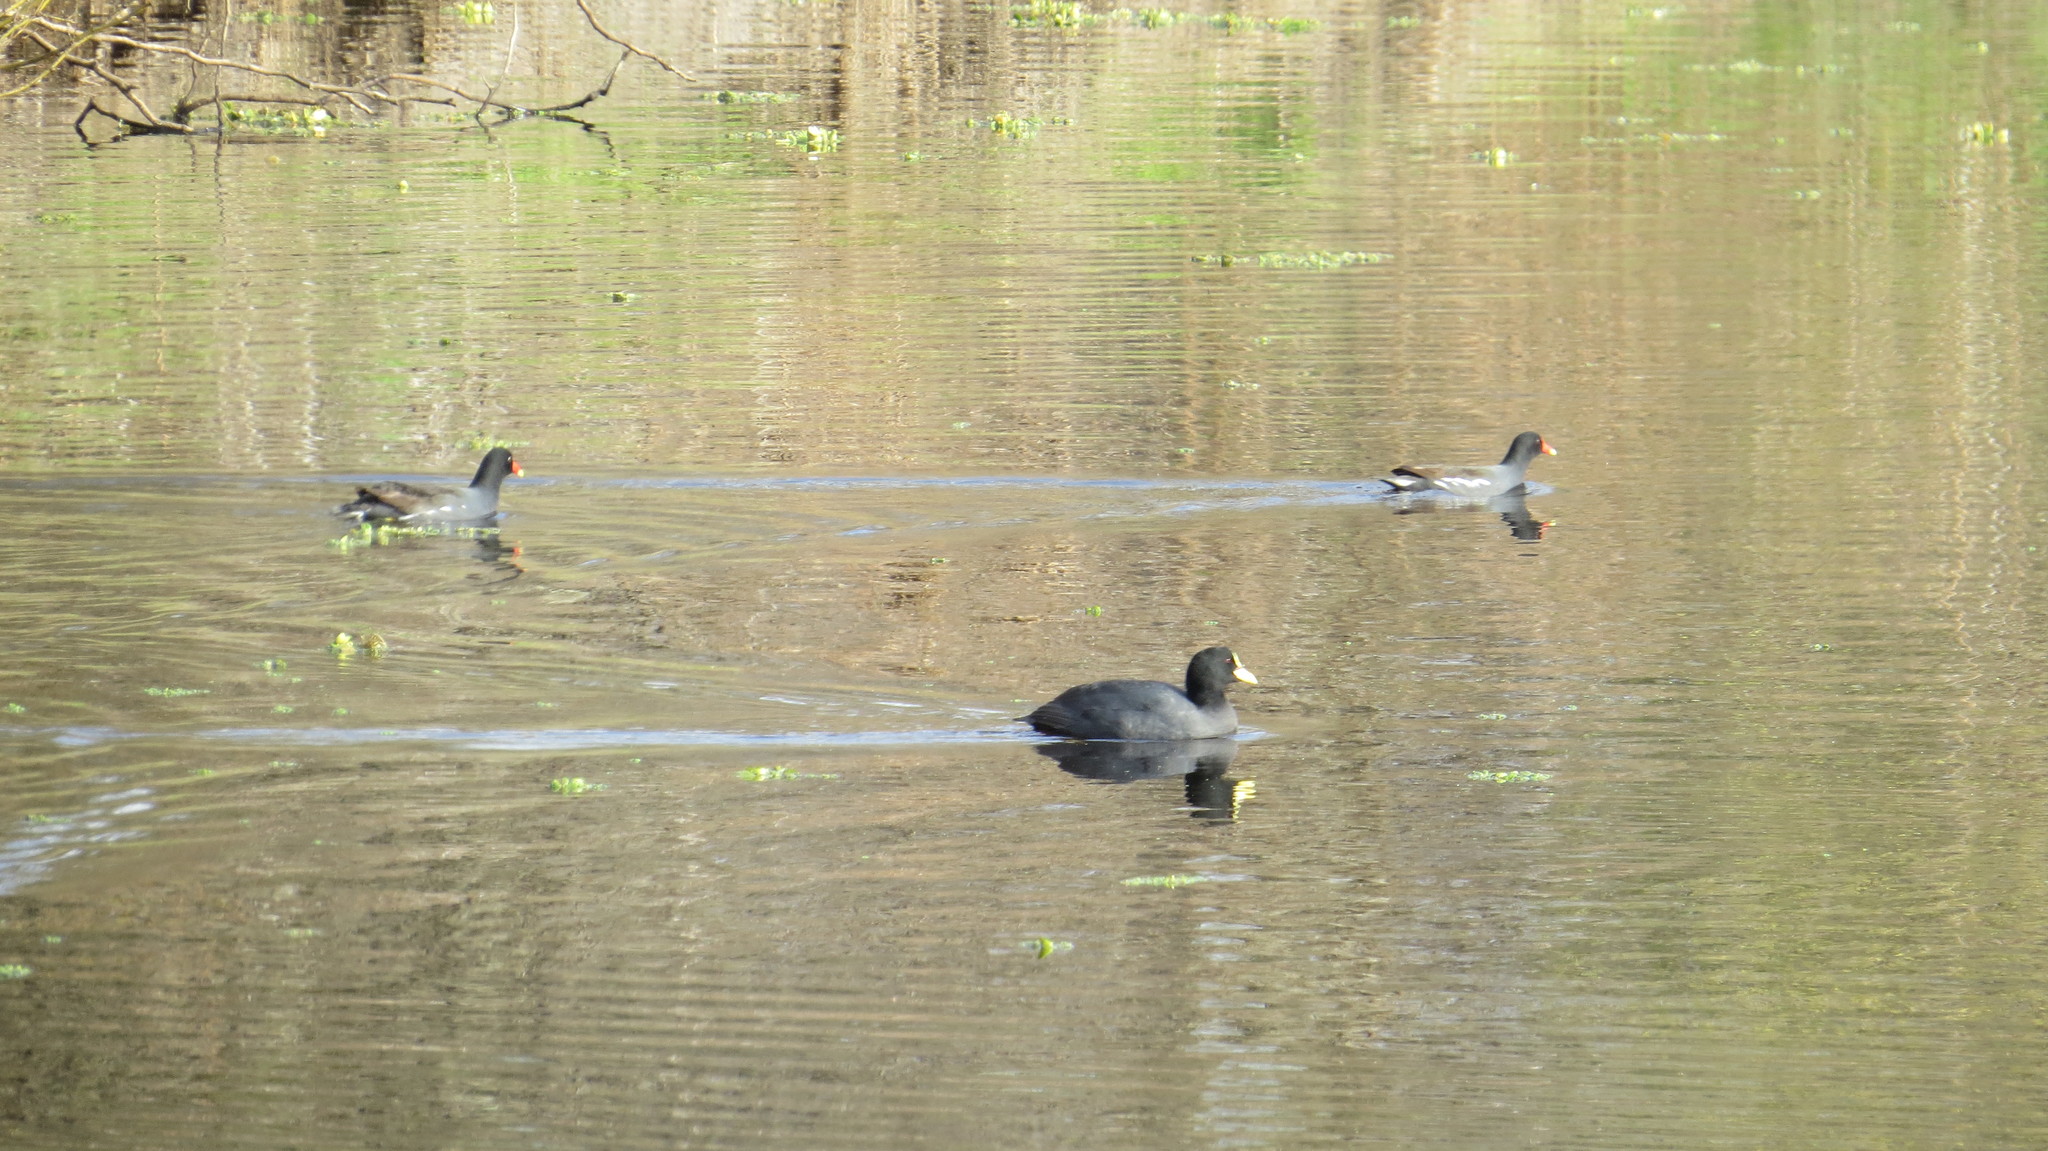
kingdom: Animalia
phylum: Chordata
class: Aves
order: Gruiformes
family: Rallidae
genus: Fulica
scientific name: Fulica armillata
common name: Red-gartered coot
